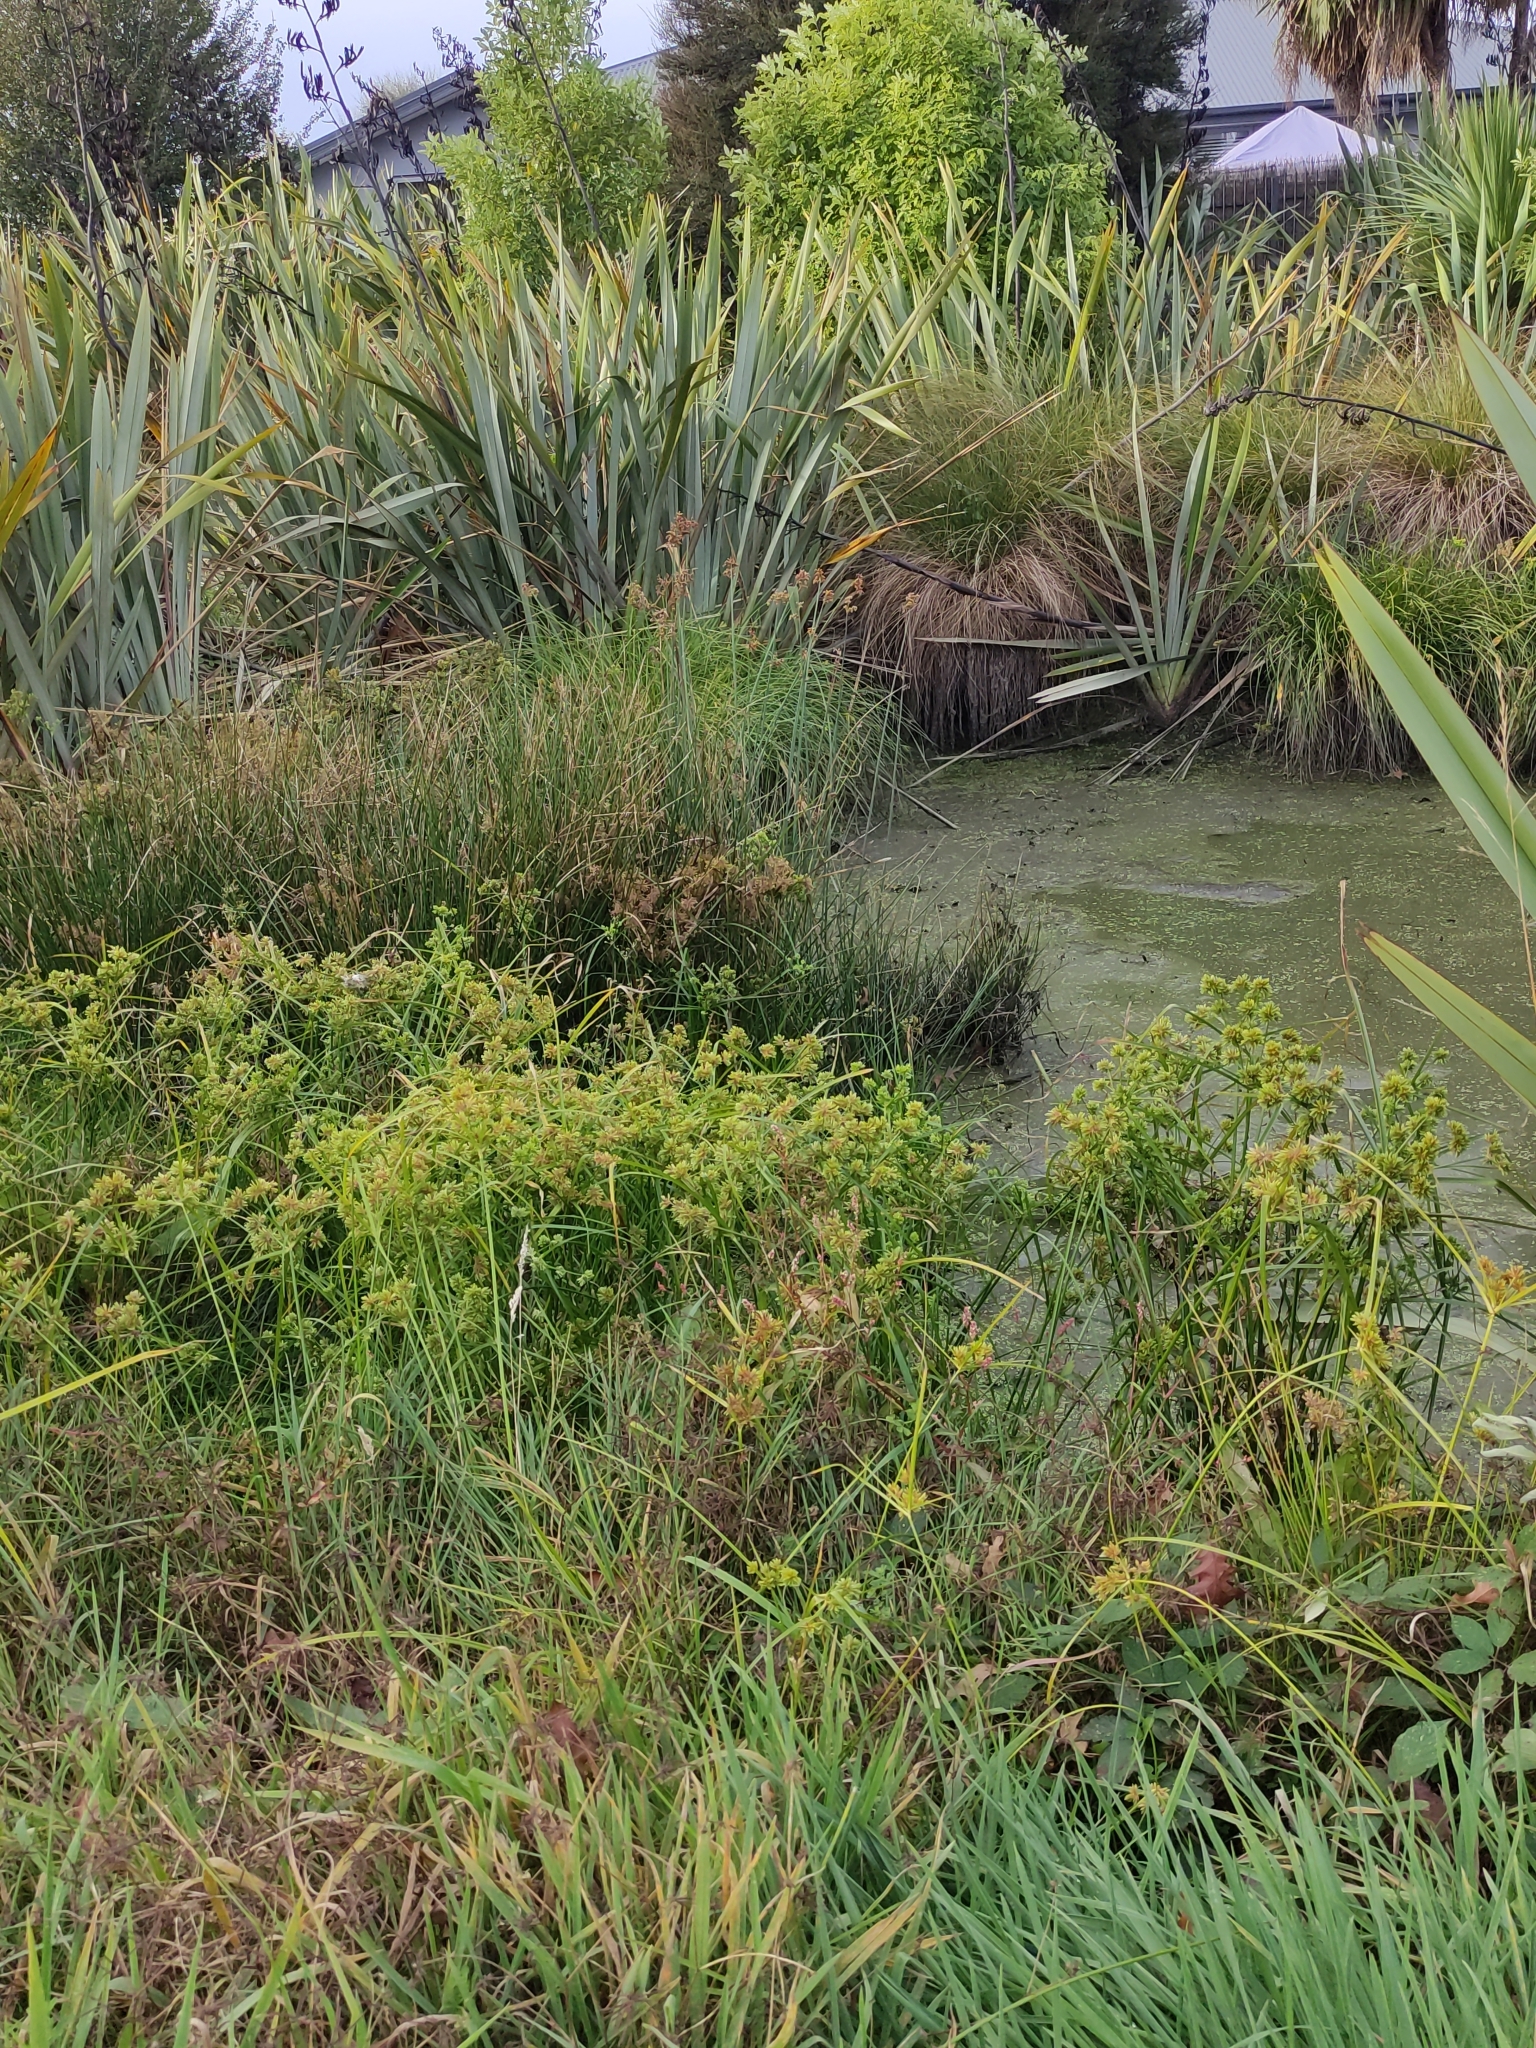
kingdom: Plantae
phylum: Tracheophyta
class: Liliopsida
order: Poales
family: Cyperaceae
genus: Cyperus
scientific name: Cyperus eragrostis
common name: Tall flatsedge
